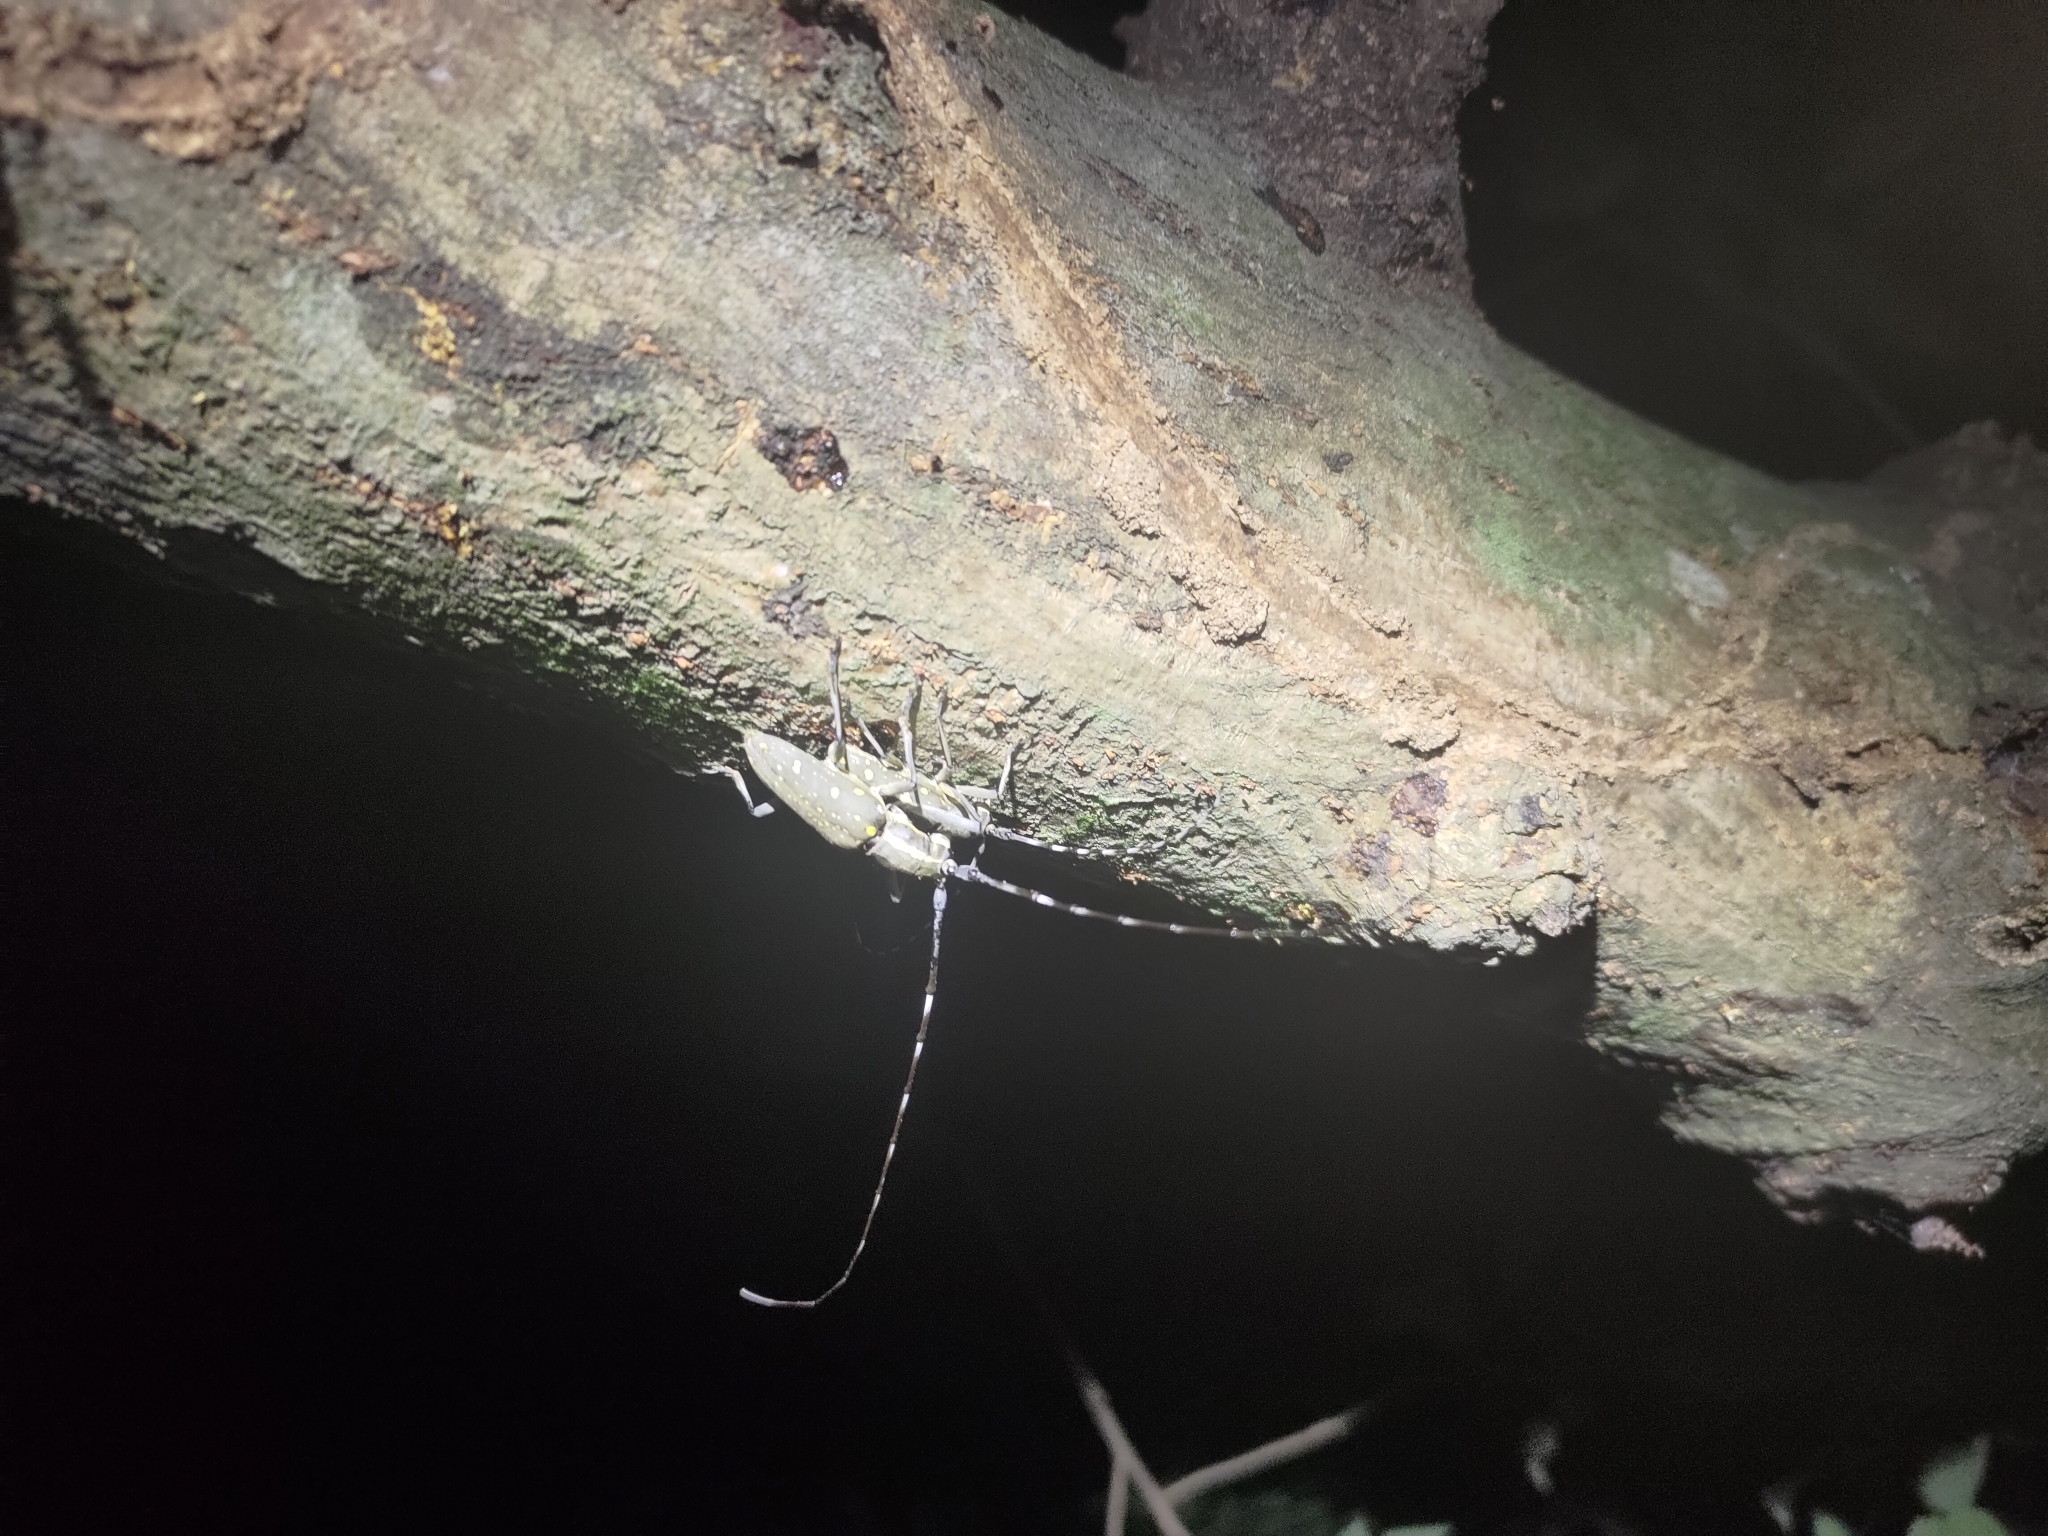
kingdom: Animalia
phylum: Arthropoda
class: Insecta
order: Coleoptera
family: Cerambycidae
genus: Psacothea
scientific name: Psacothea hilaris
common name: Yellow-spotted longicorn beetle
